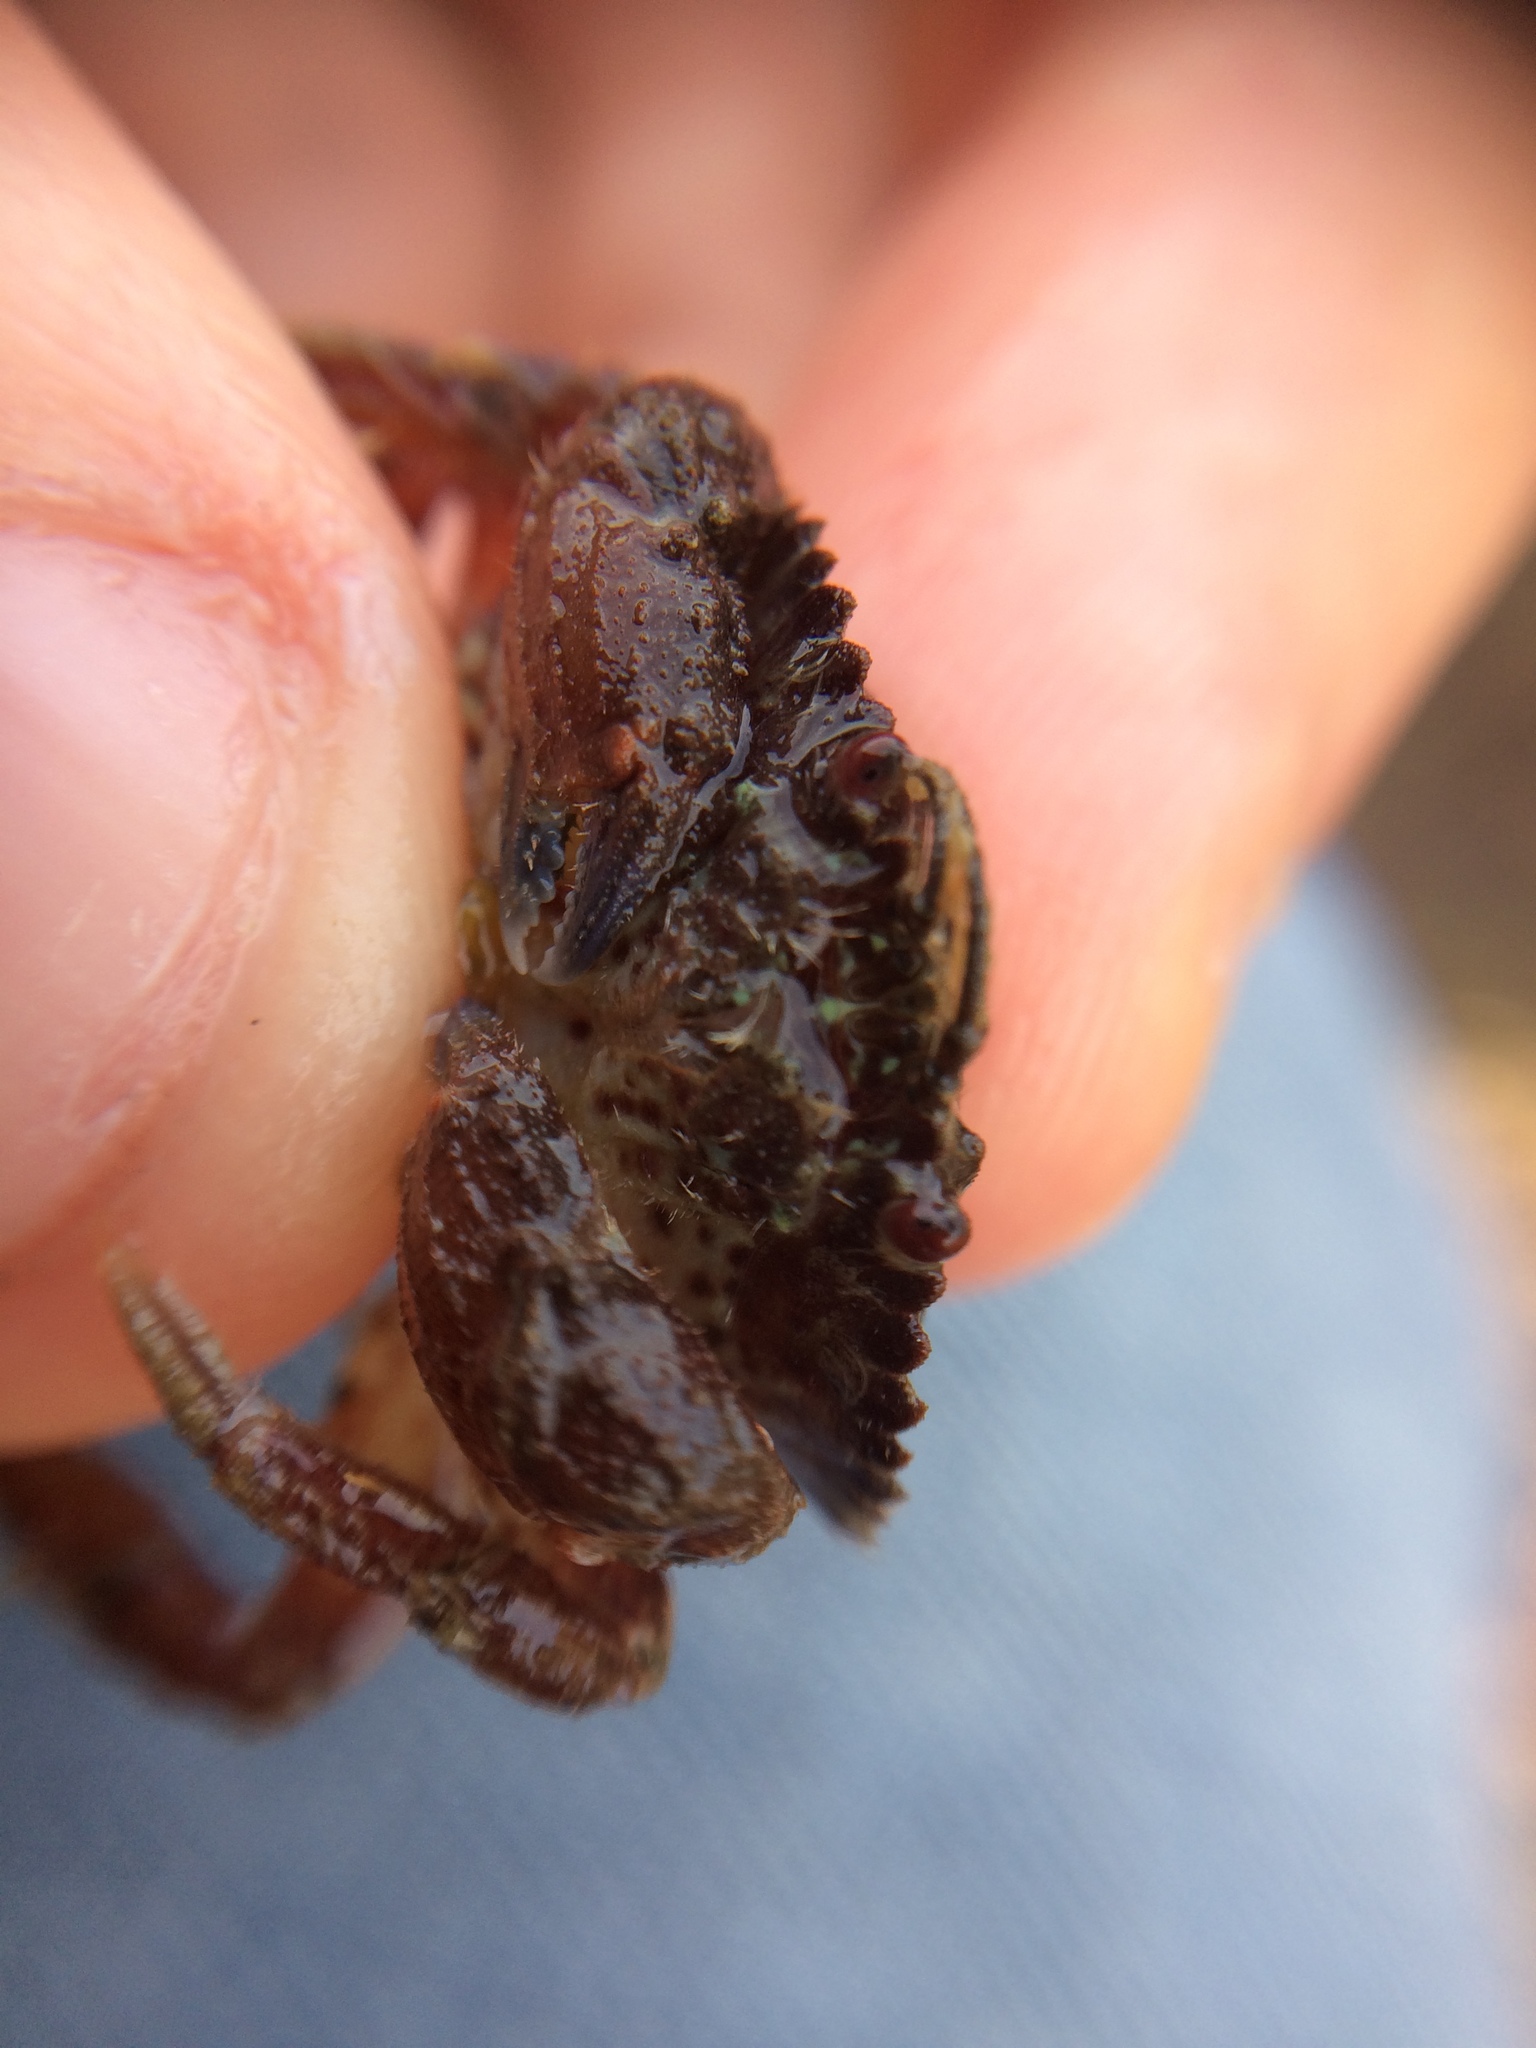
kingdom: Animalia
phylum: Arthropoda
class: Malacostraca
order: Decapoda
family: Cancridae
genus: Romaleon
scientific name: Romaleon antennarium
